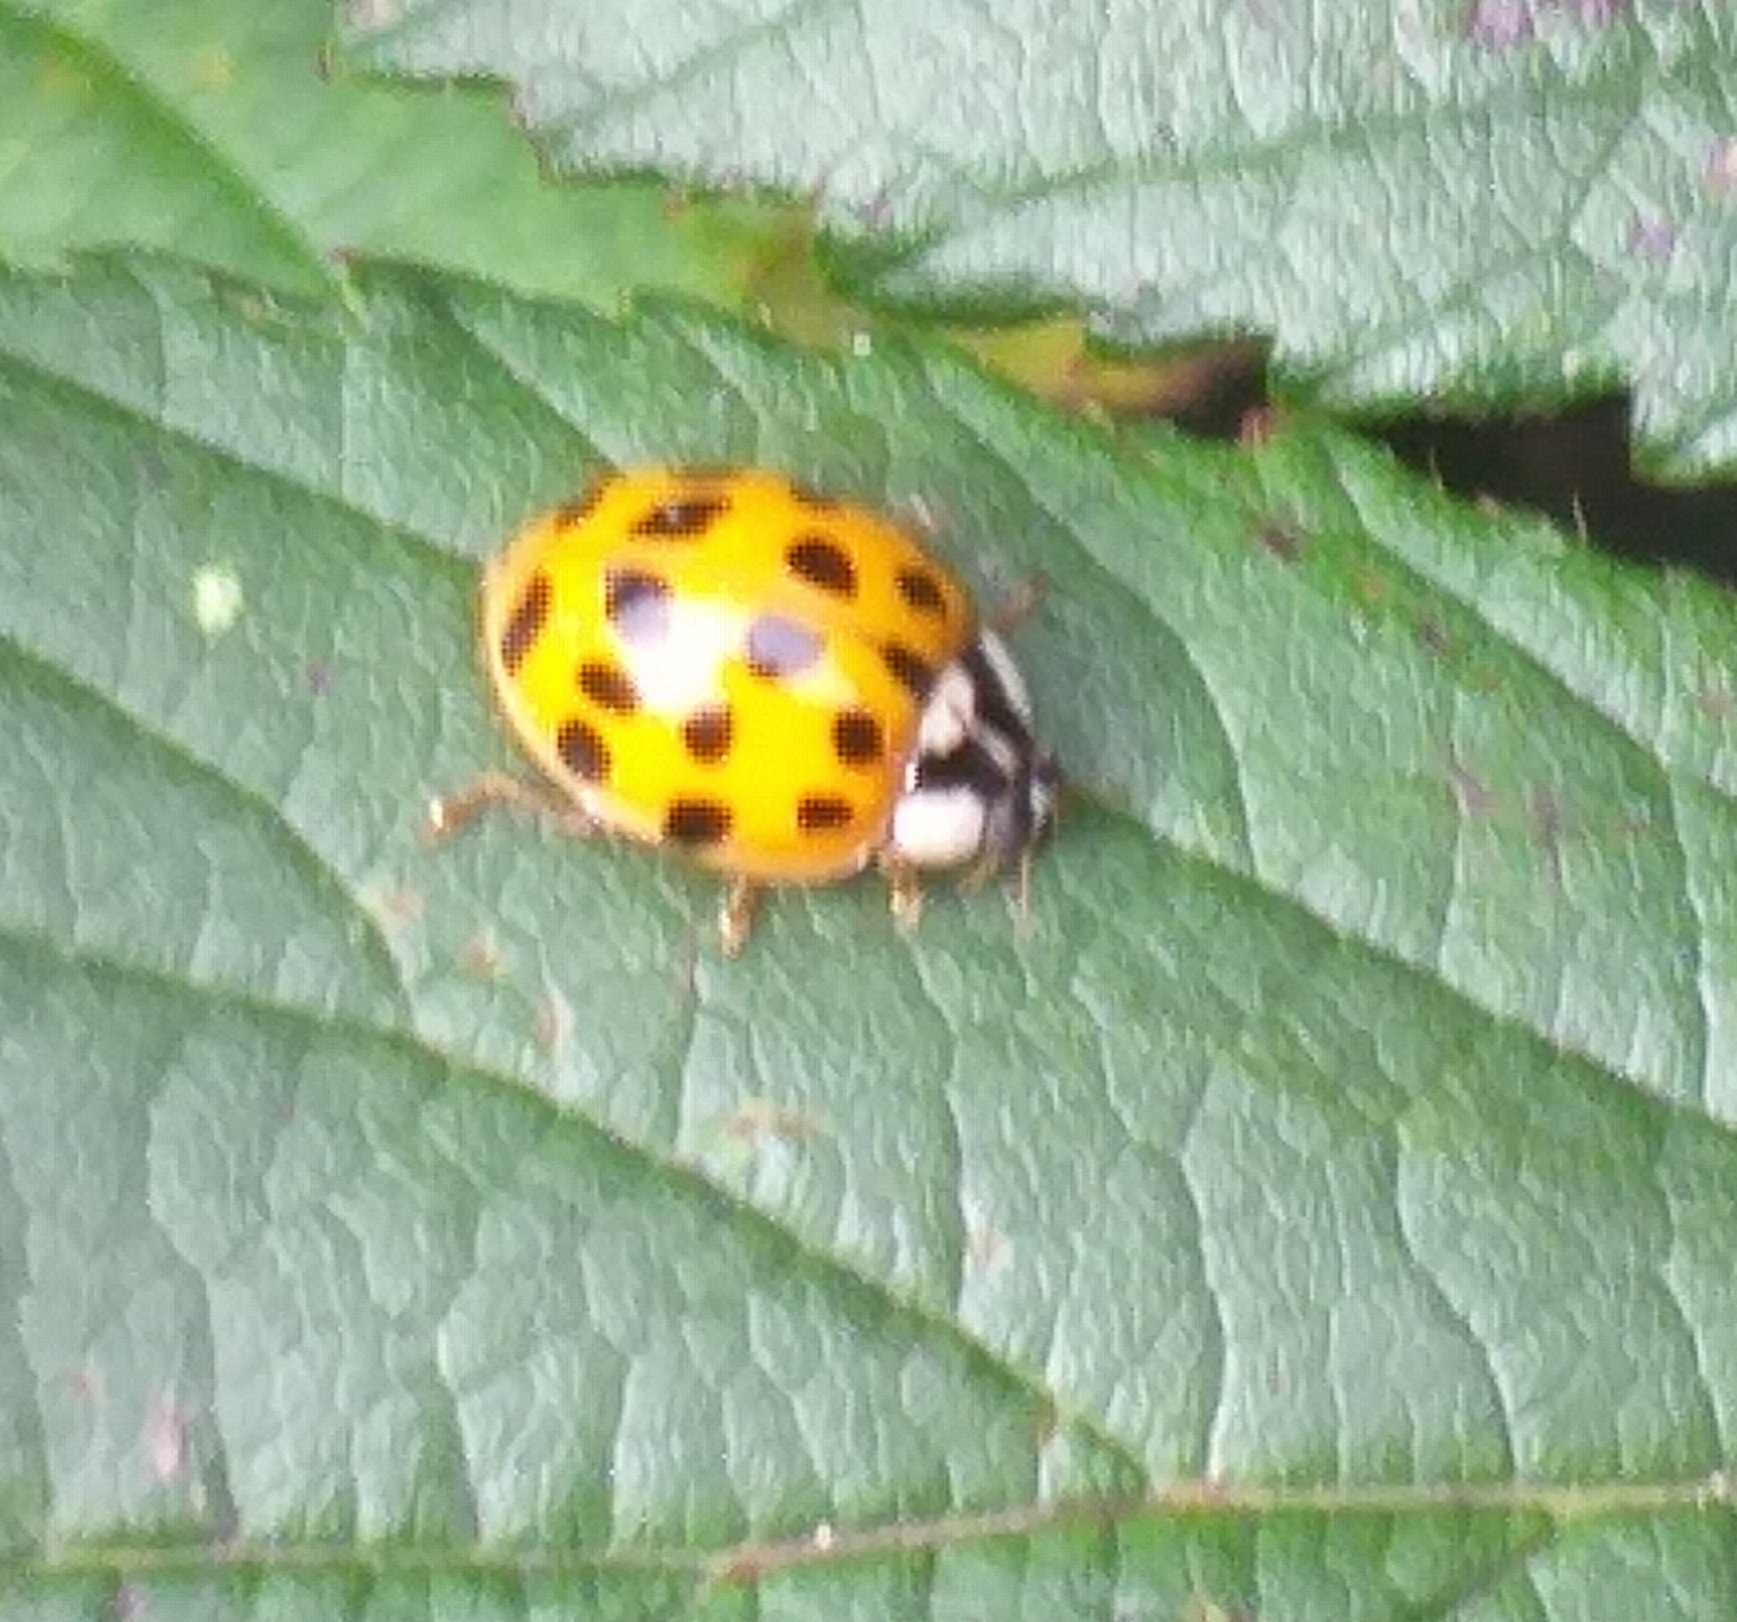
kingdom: Animalia
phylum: Arthropoda
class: Insecta
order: Coleoptera
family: Coccinellidae
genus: Harmonia
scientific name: Harmonia axyridis
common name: Harlequin ladybird
